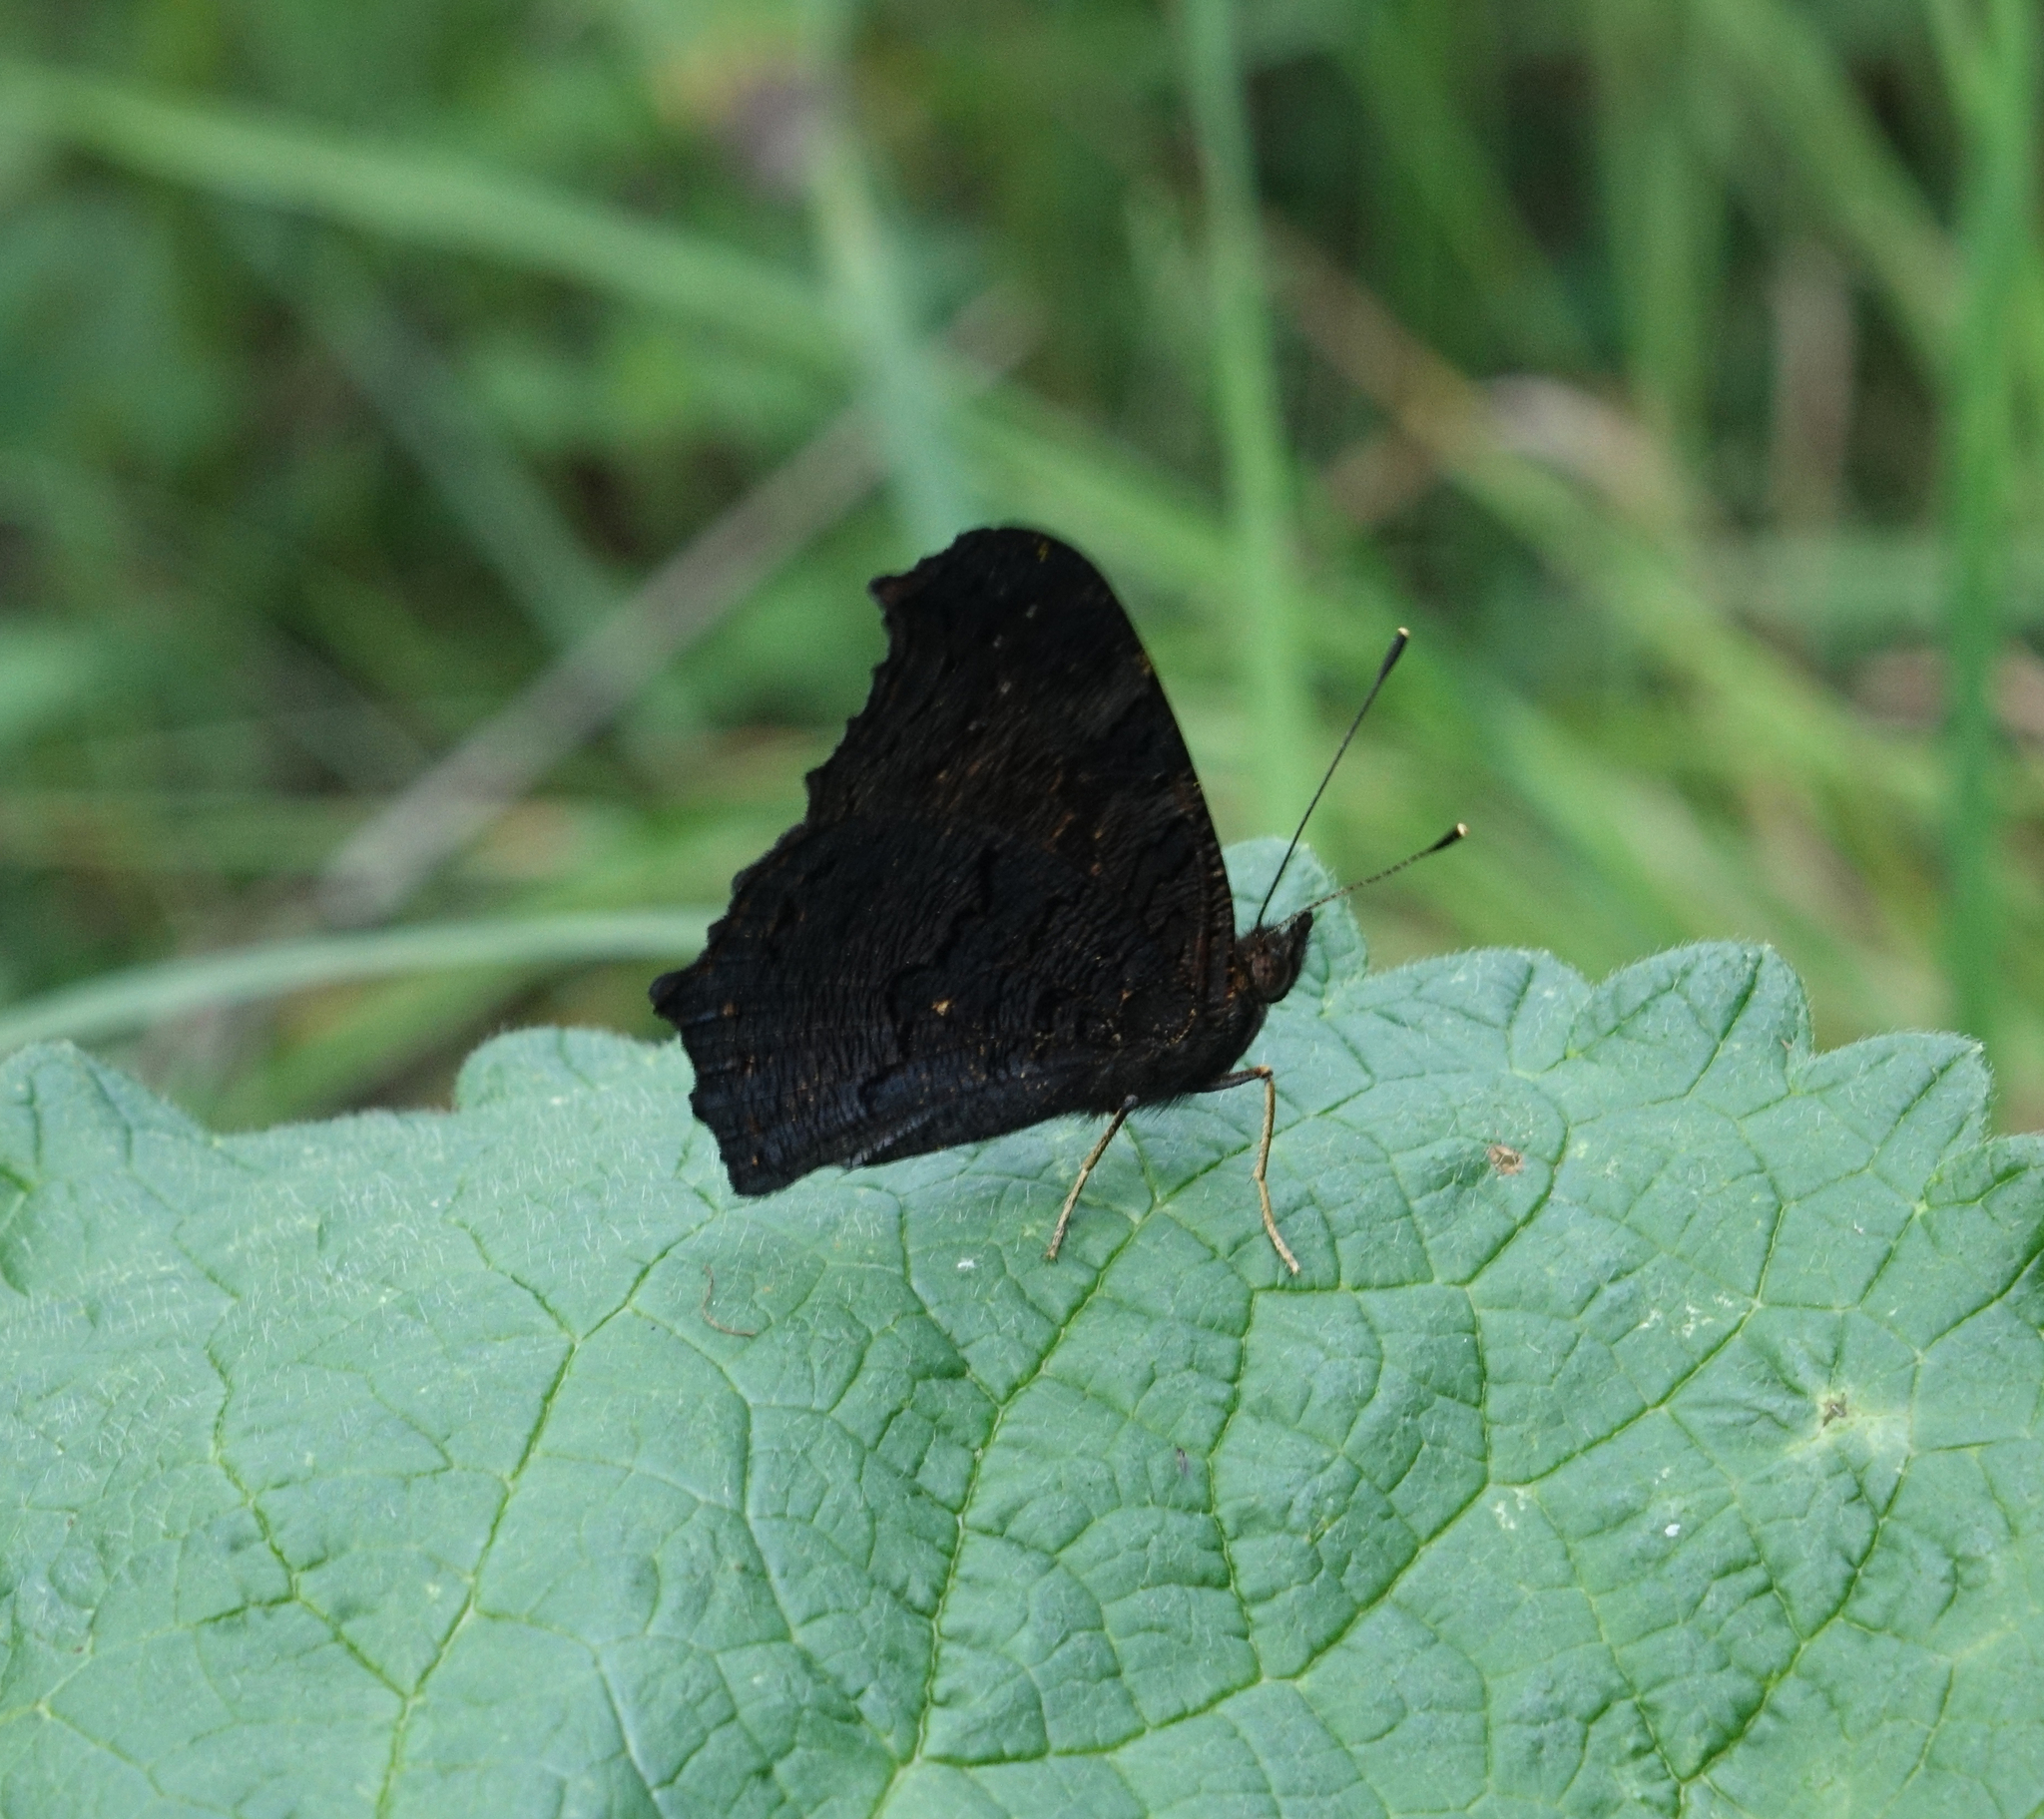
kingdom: Animalia
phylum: Arthropoda
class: Insecta
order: Lepidoptera
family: Nymphalidae
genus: Aglais
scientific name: Aglais io
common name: Peacock
